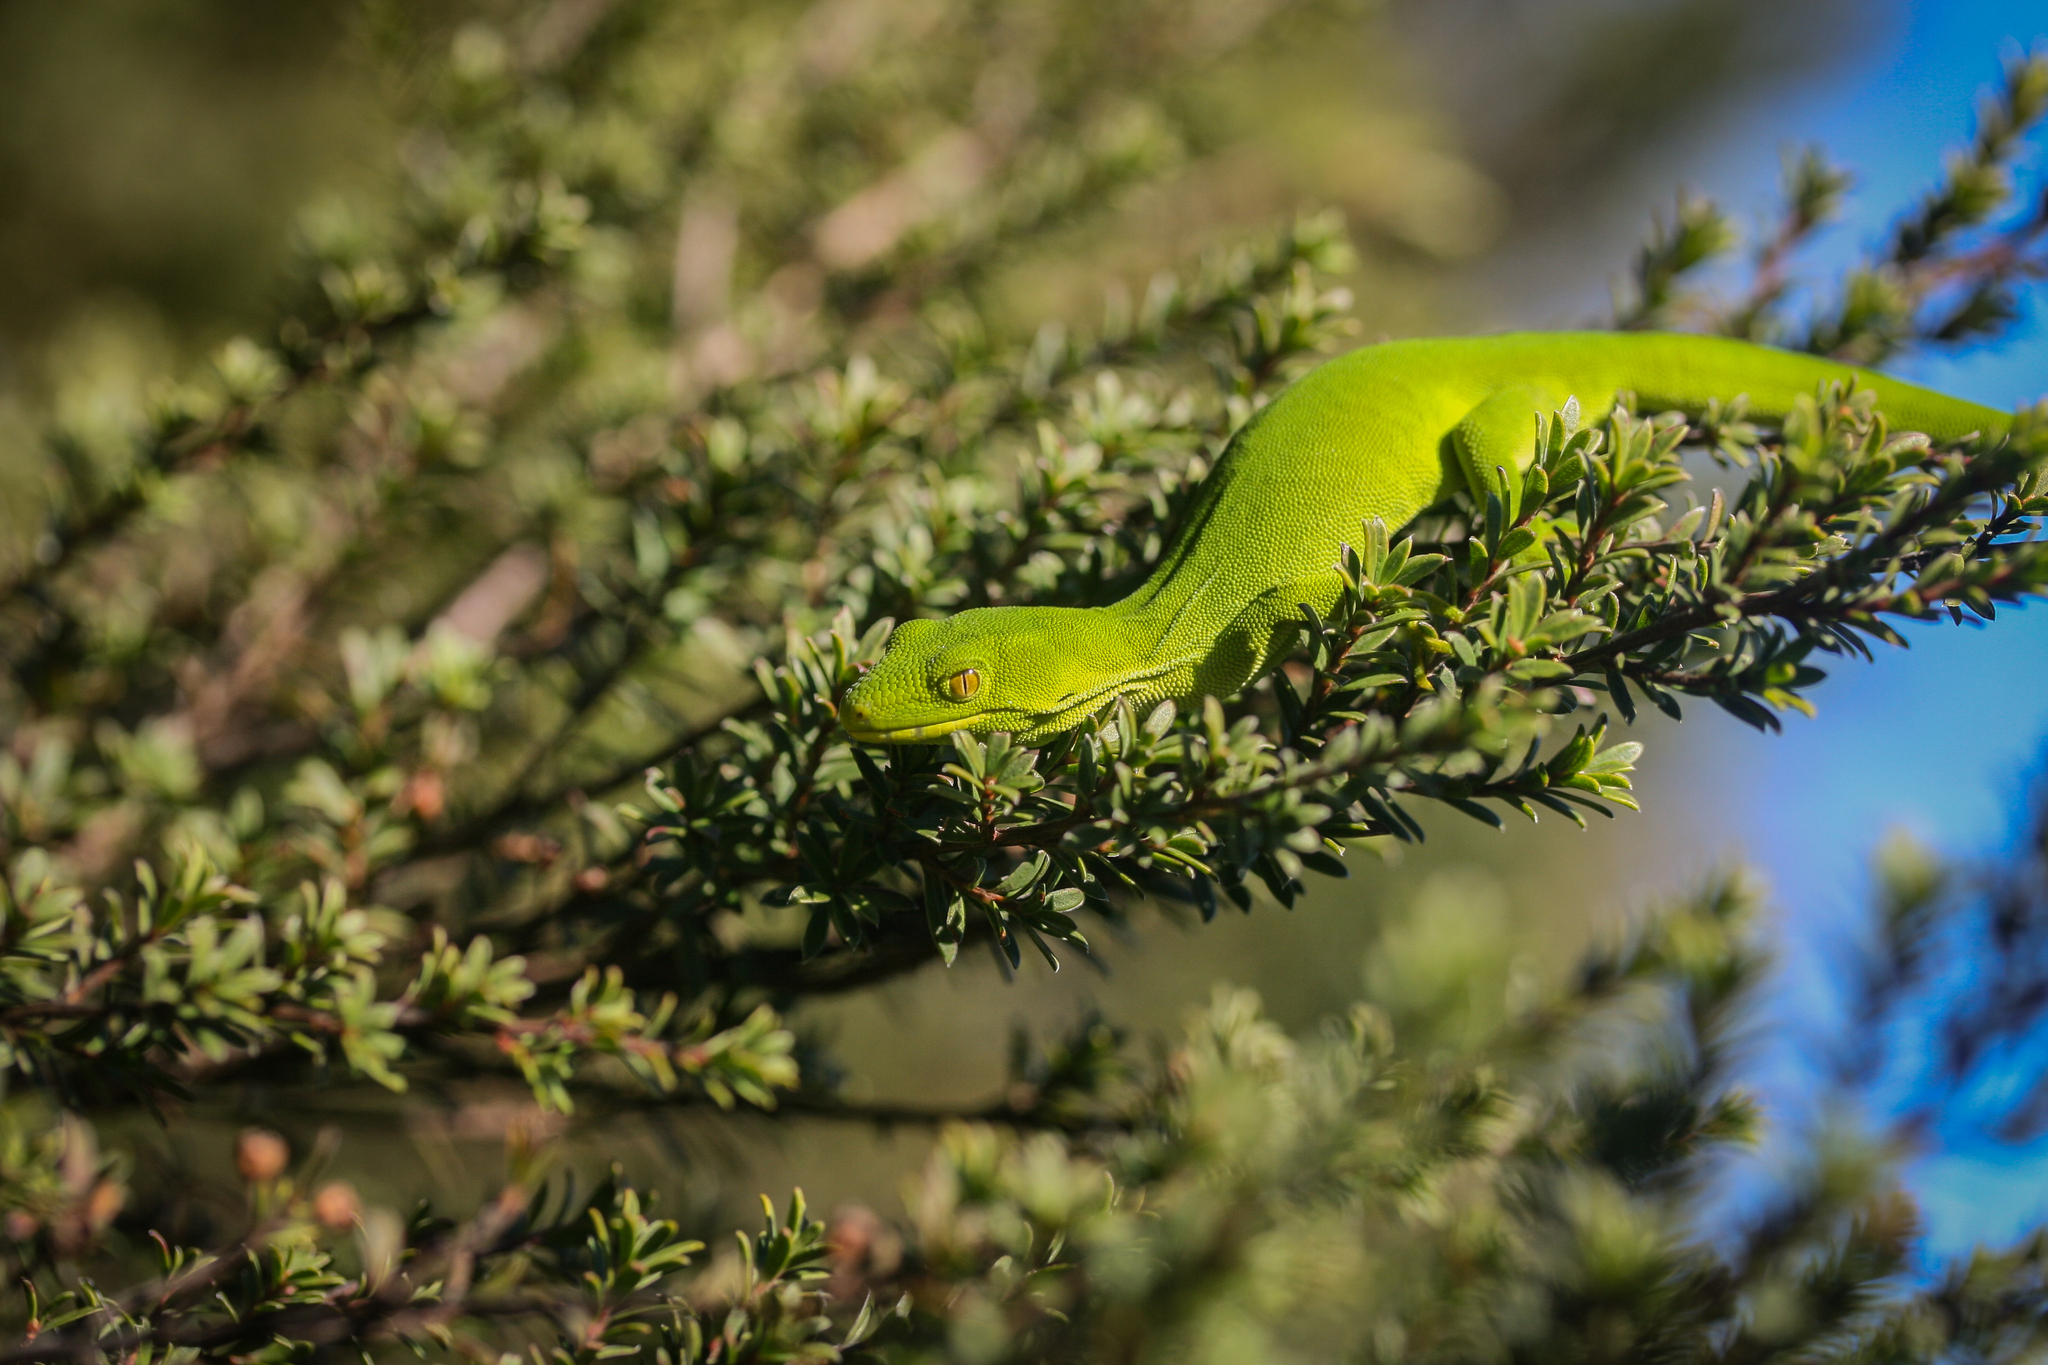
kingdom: Animalia
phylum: Chordata
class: Squamata
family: Diplodactylidae
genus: Naultinus
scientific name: Naultinus elegans
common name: Auckland green gecko
